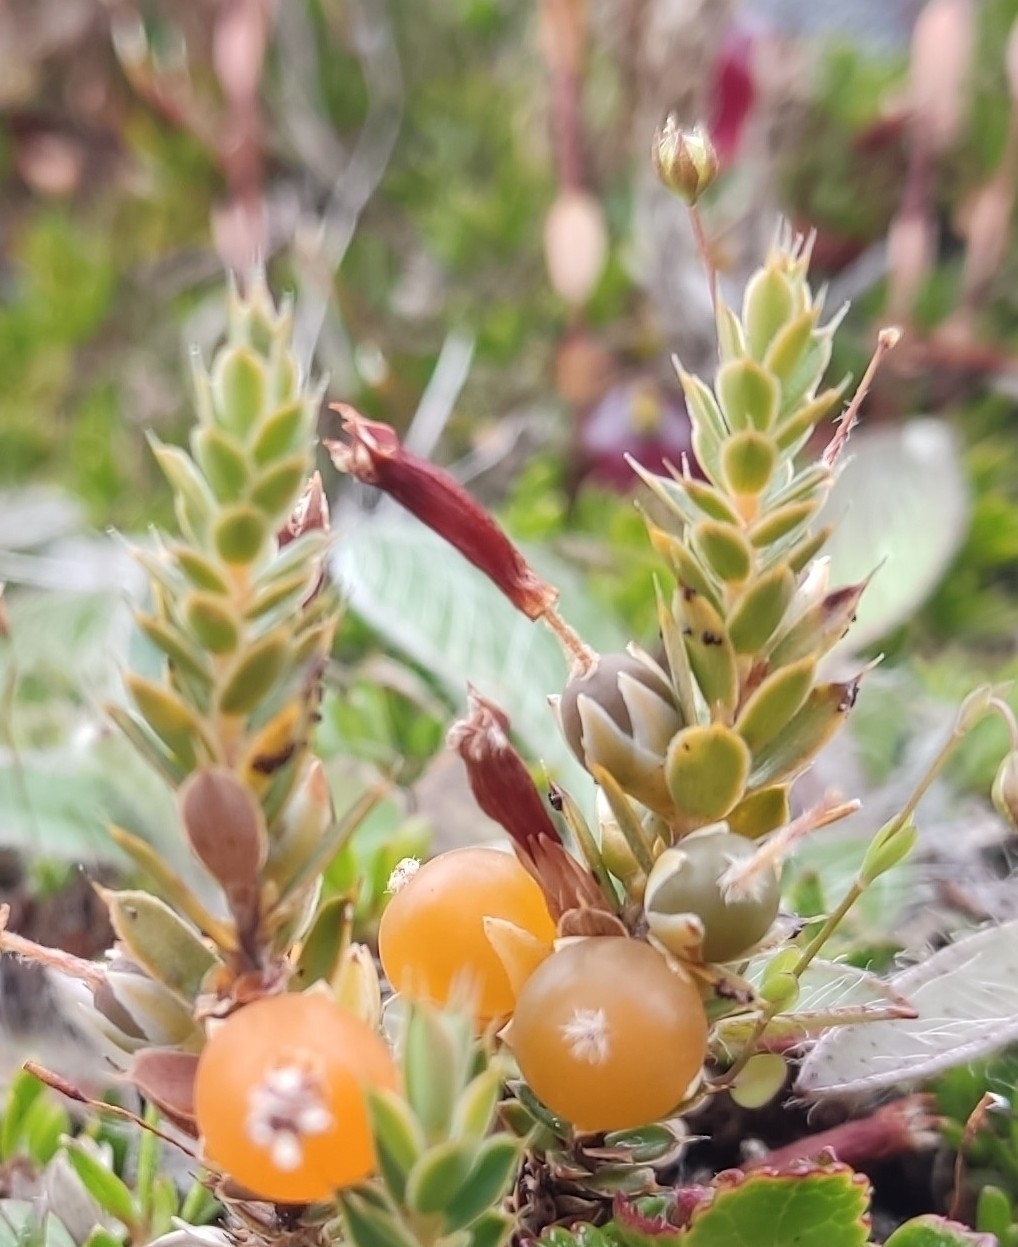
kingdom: Plantae
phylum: Tracheophyta
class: Magnoliopsida
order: Ericales
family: Ericaceae
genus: Styphelia
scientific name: Styphelia nesophila
